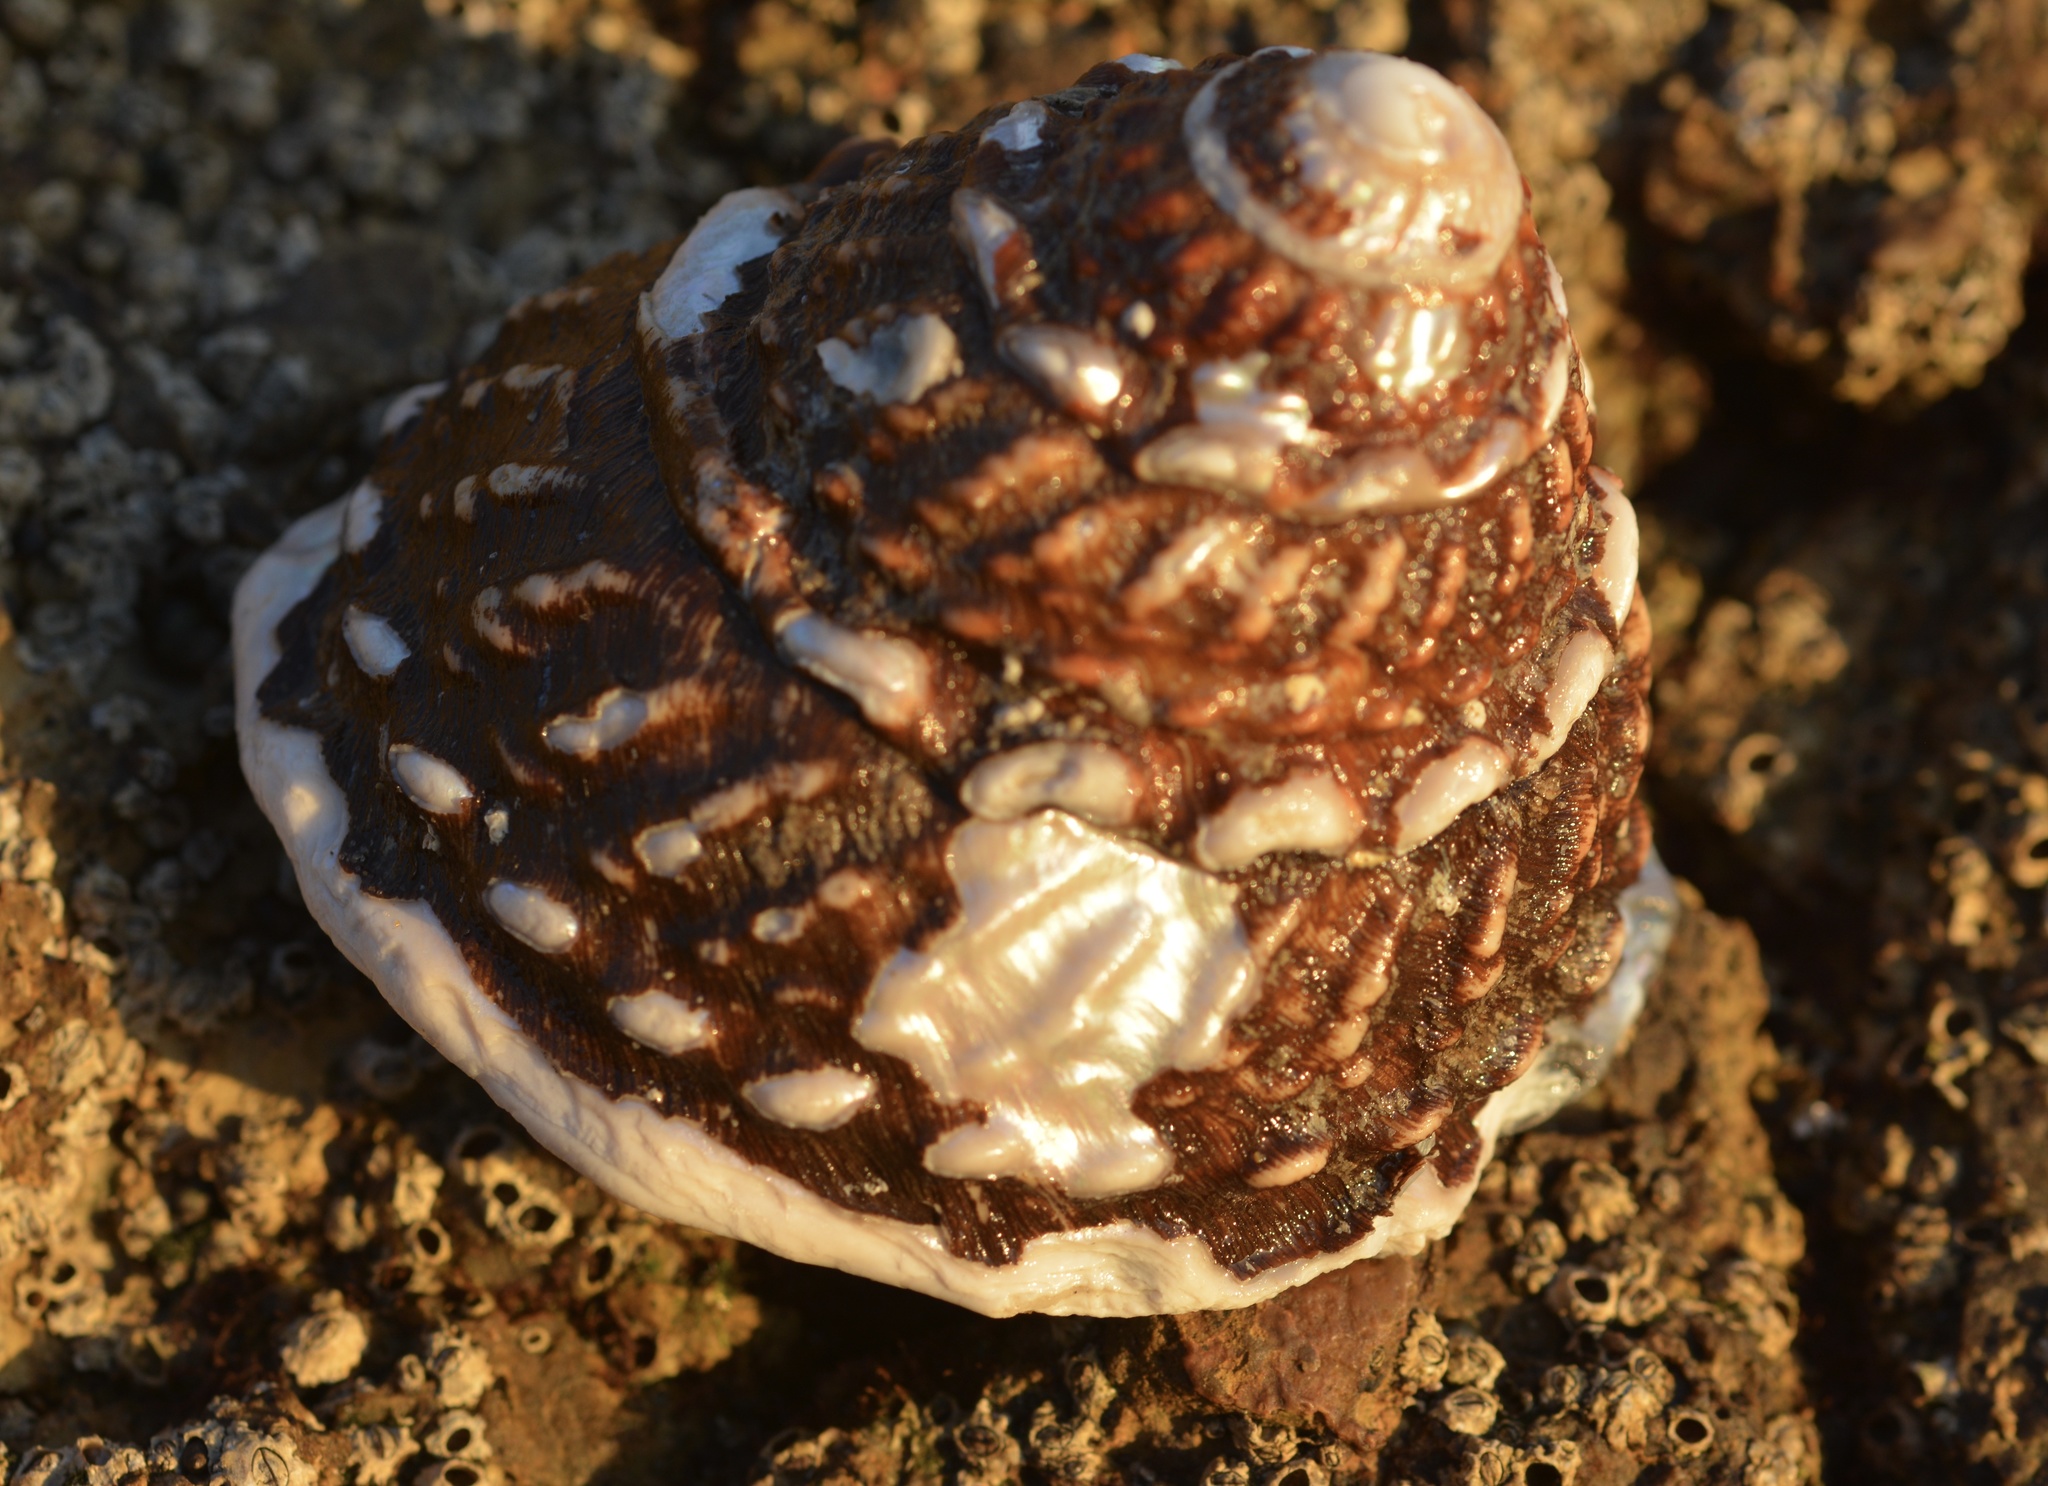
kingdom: Animalia
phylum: Mollusca
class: Gastropoda
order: Trochida
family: Turbinidae
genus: Megastraea
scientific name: Megastraea undosa
